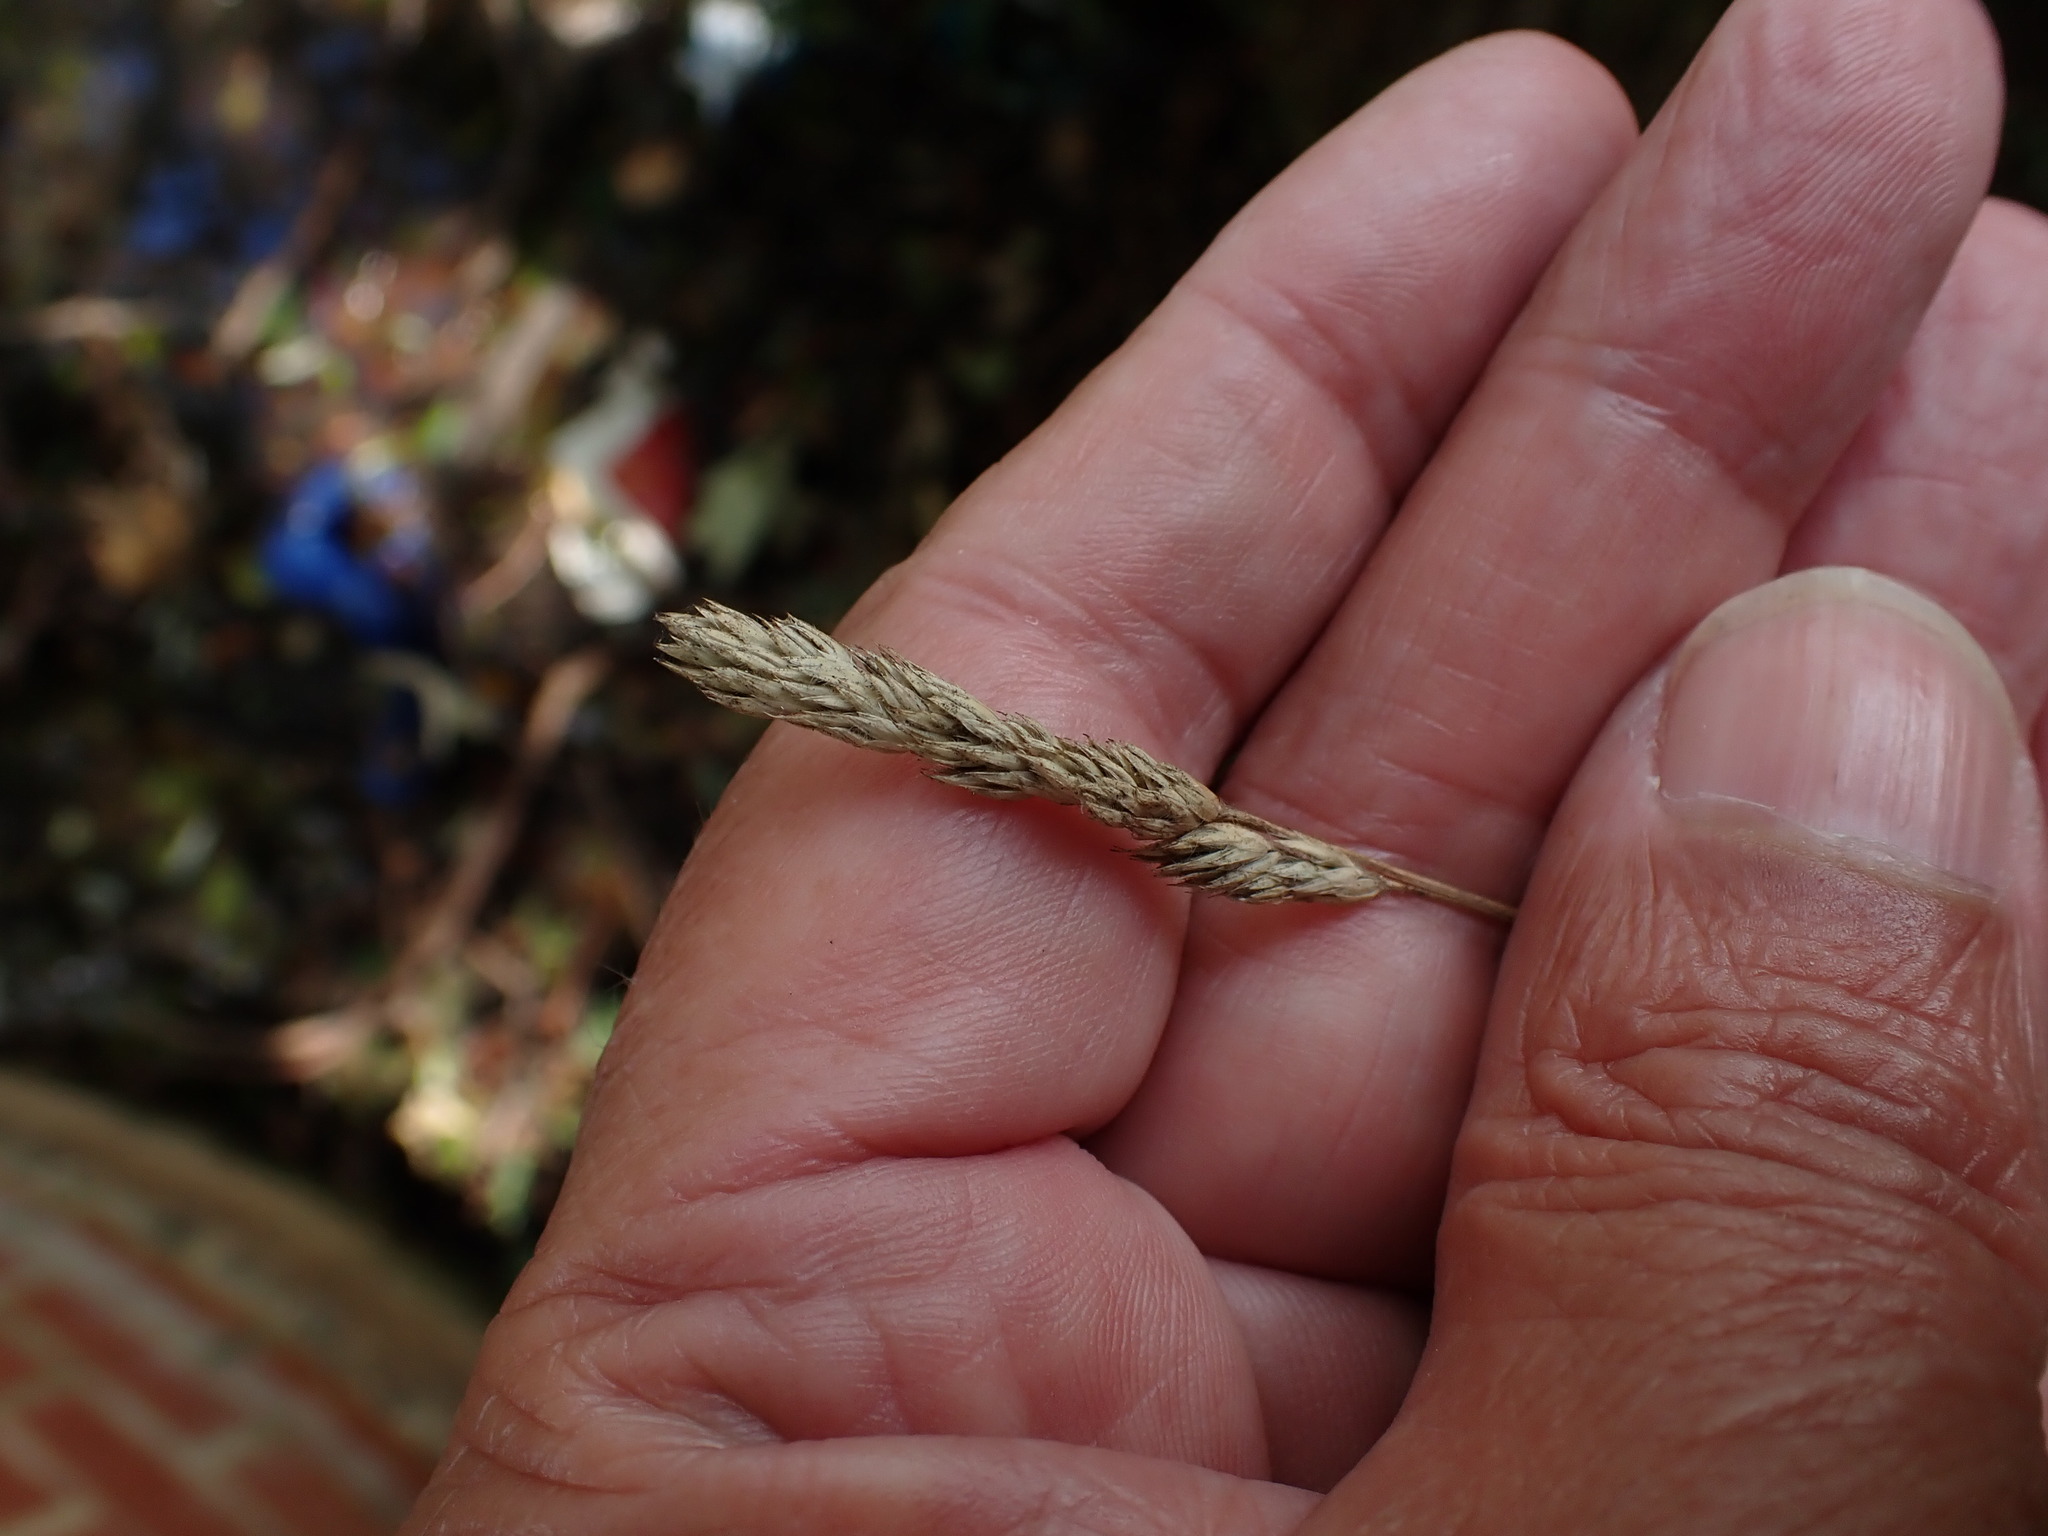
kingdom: Plantae
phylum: Tracheophyta
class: Liliopsida
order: Poales
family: Poaceae
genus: Dactylis
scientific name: Dactylis glomerata
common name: Orchardgrass
